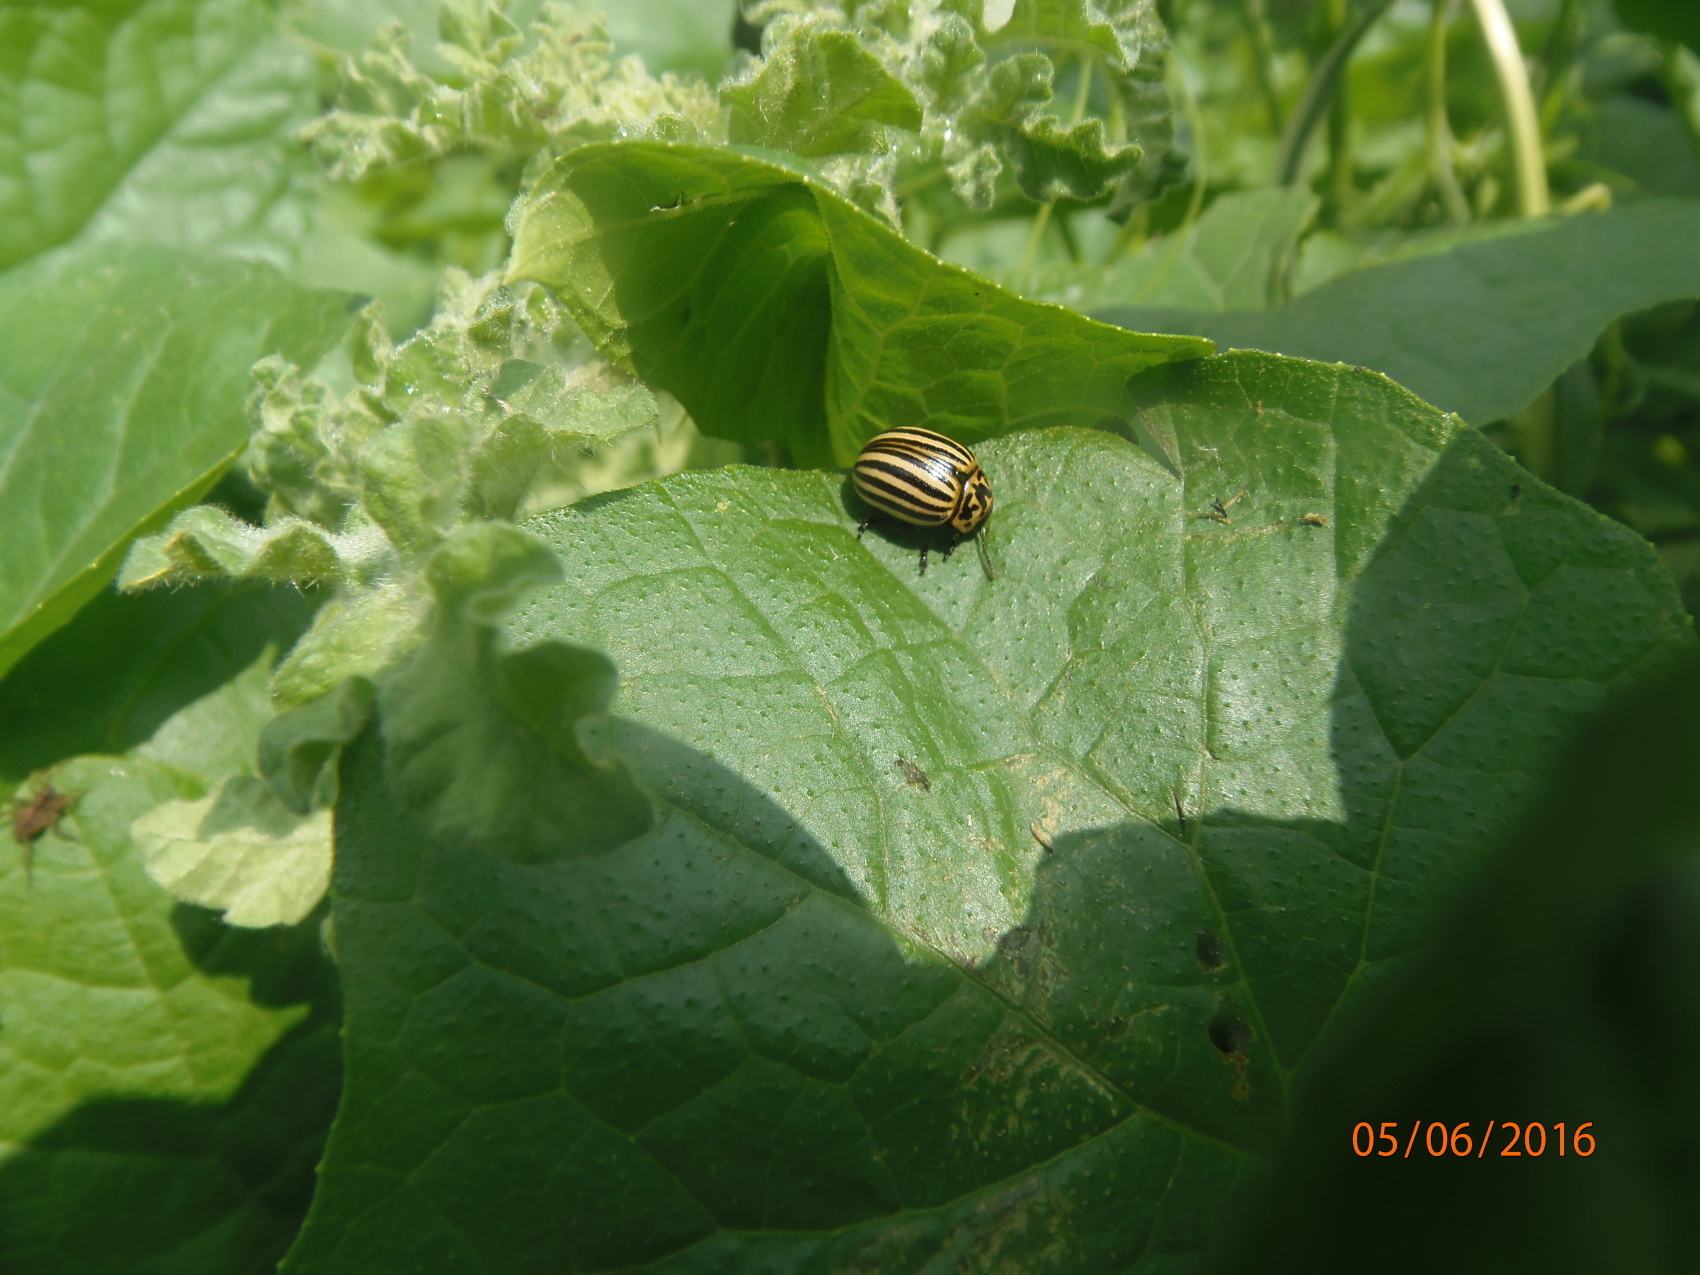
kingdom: Animalia
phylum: Arthropoda
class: Insecta
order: Coleoptera
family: Chrysomelidae
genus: Leptinotarsa
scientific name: Leptinotarsa decemlineata
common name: Colorado potato beetle
